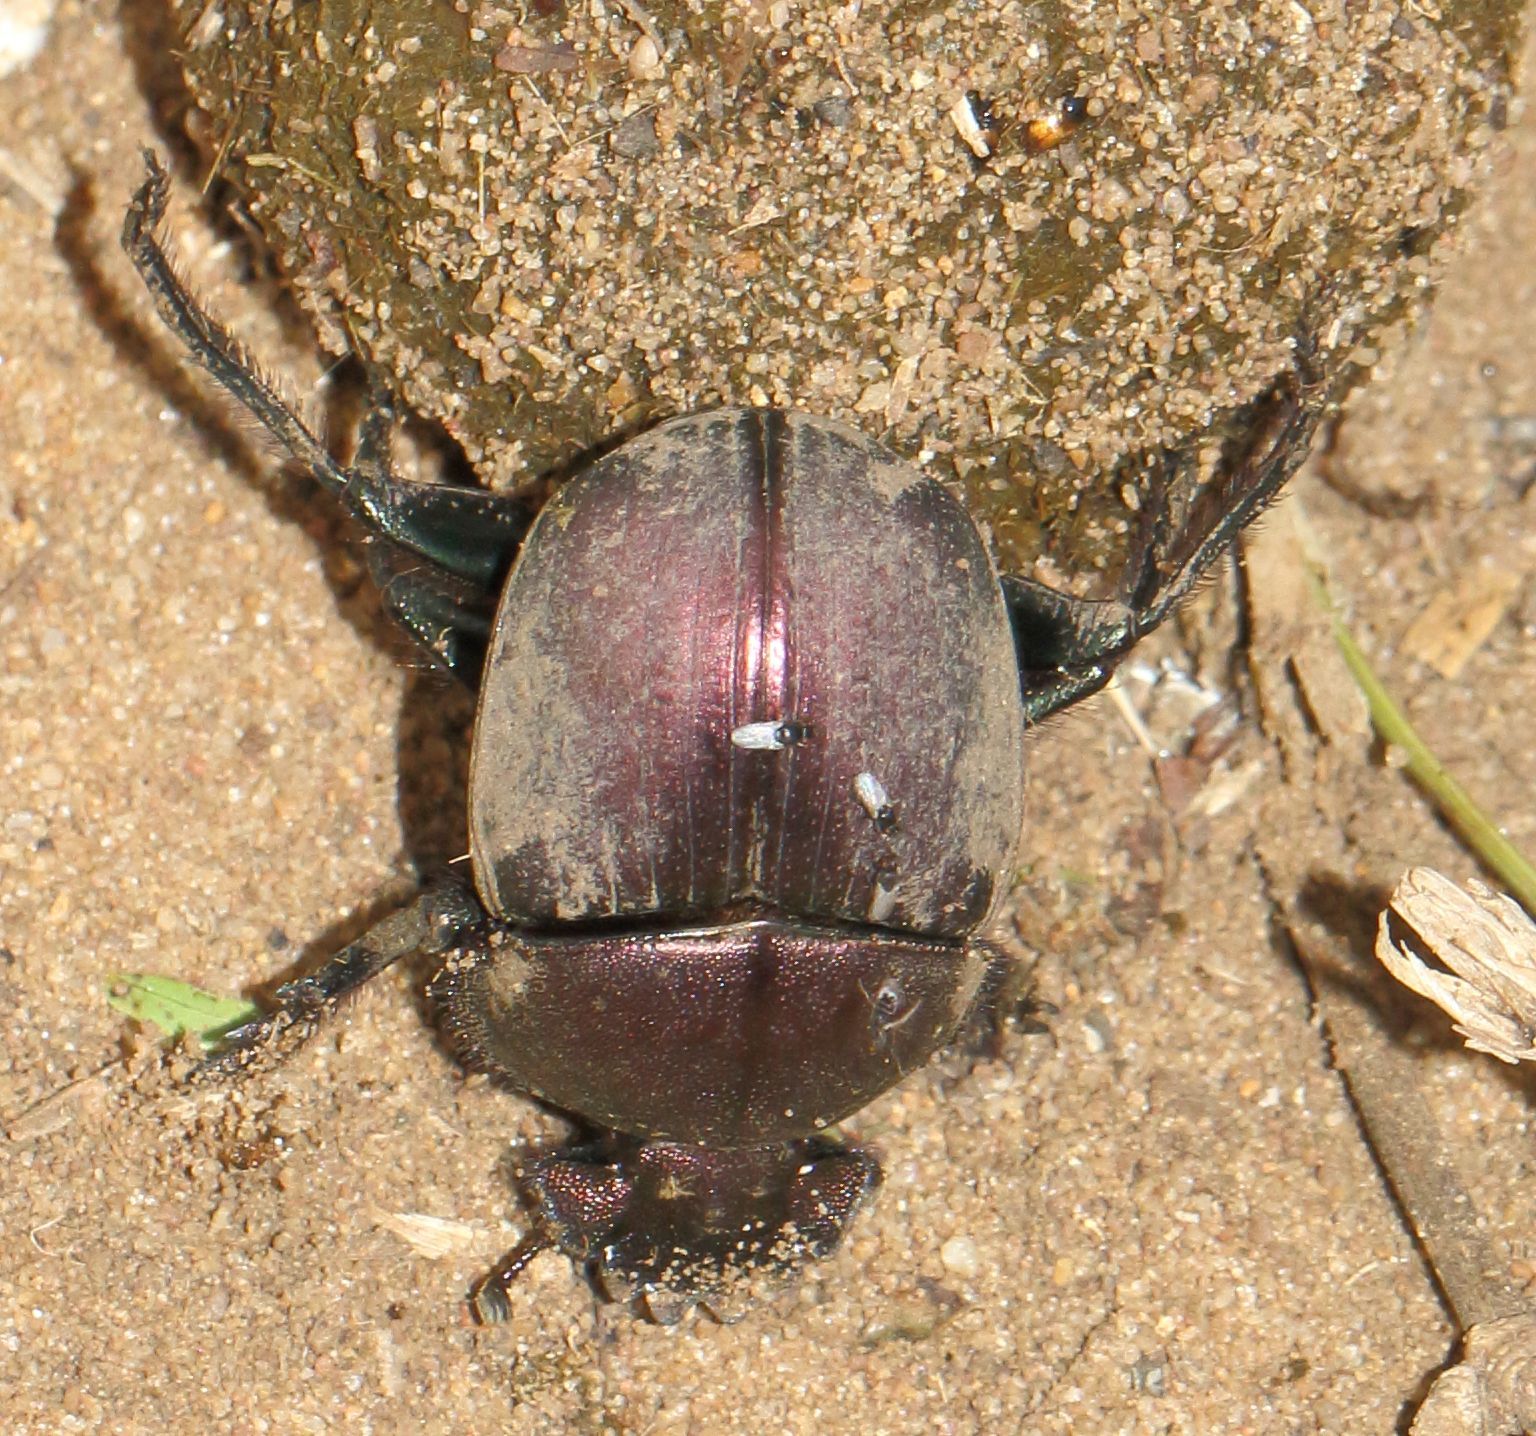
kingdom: Animalia
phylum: Arthropoda
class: Insecta
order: Coleoptera
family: Scarabaeidae
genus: Kheper
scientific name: Kheper nigroaeneus
